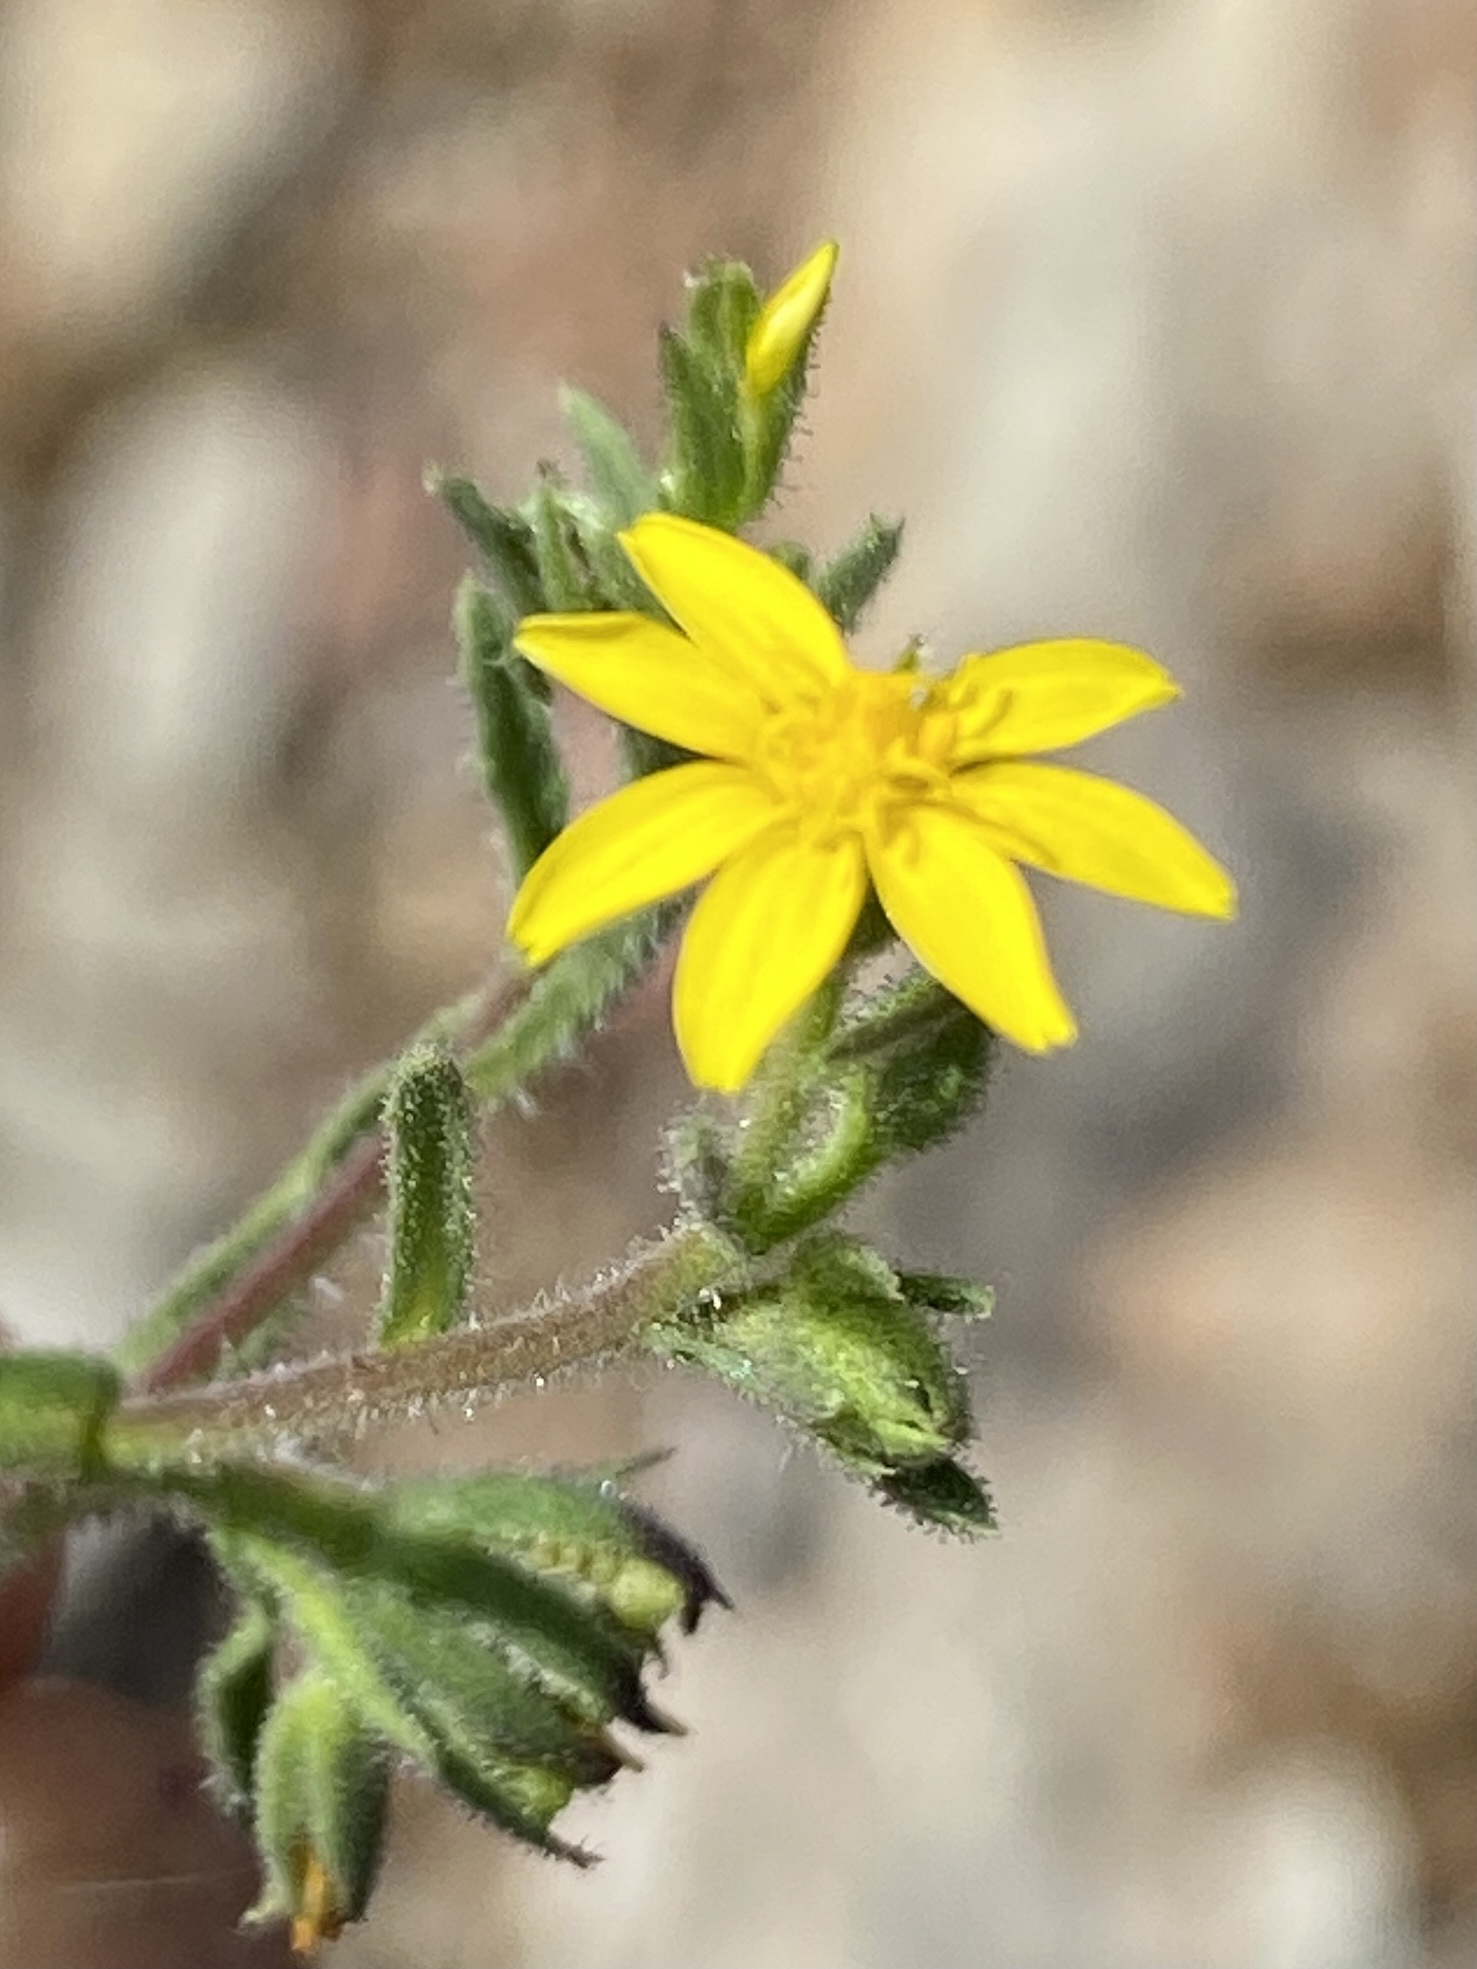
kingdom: Plantae
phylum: Tracheophyta
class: Magnoliopsida
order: Asterales
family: Asteraceae
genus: Osteospermum
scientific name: Osteospermum calendulaceum
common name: Stinking roger
